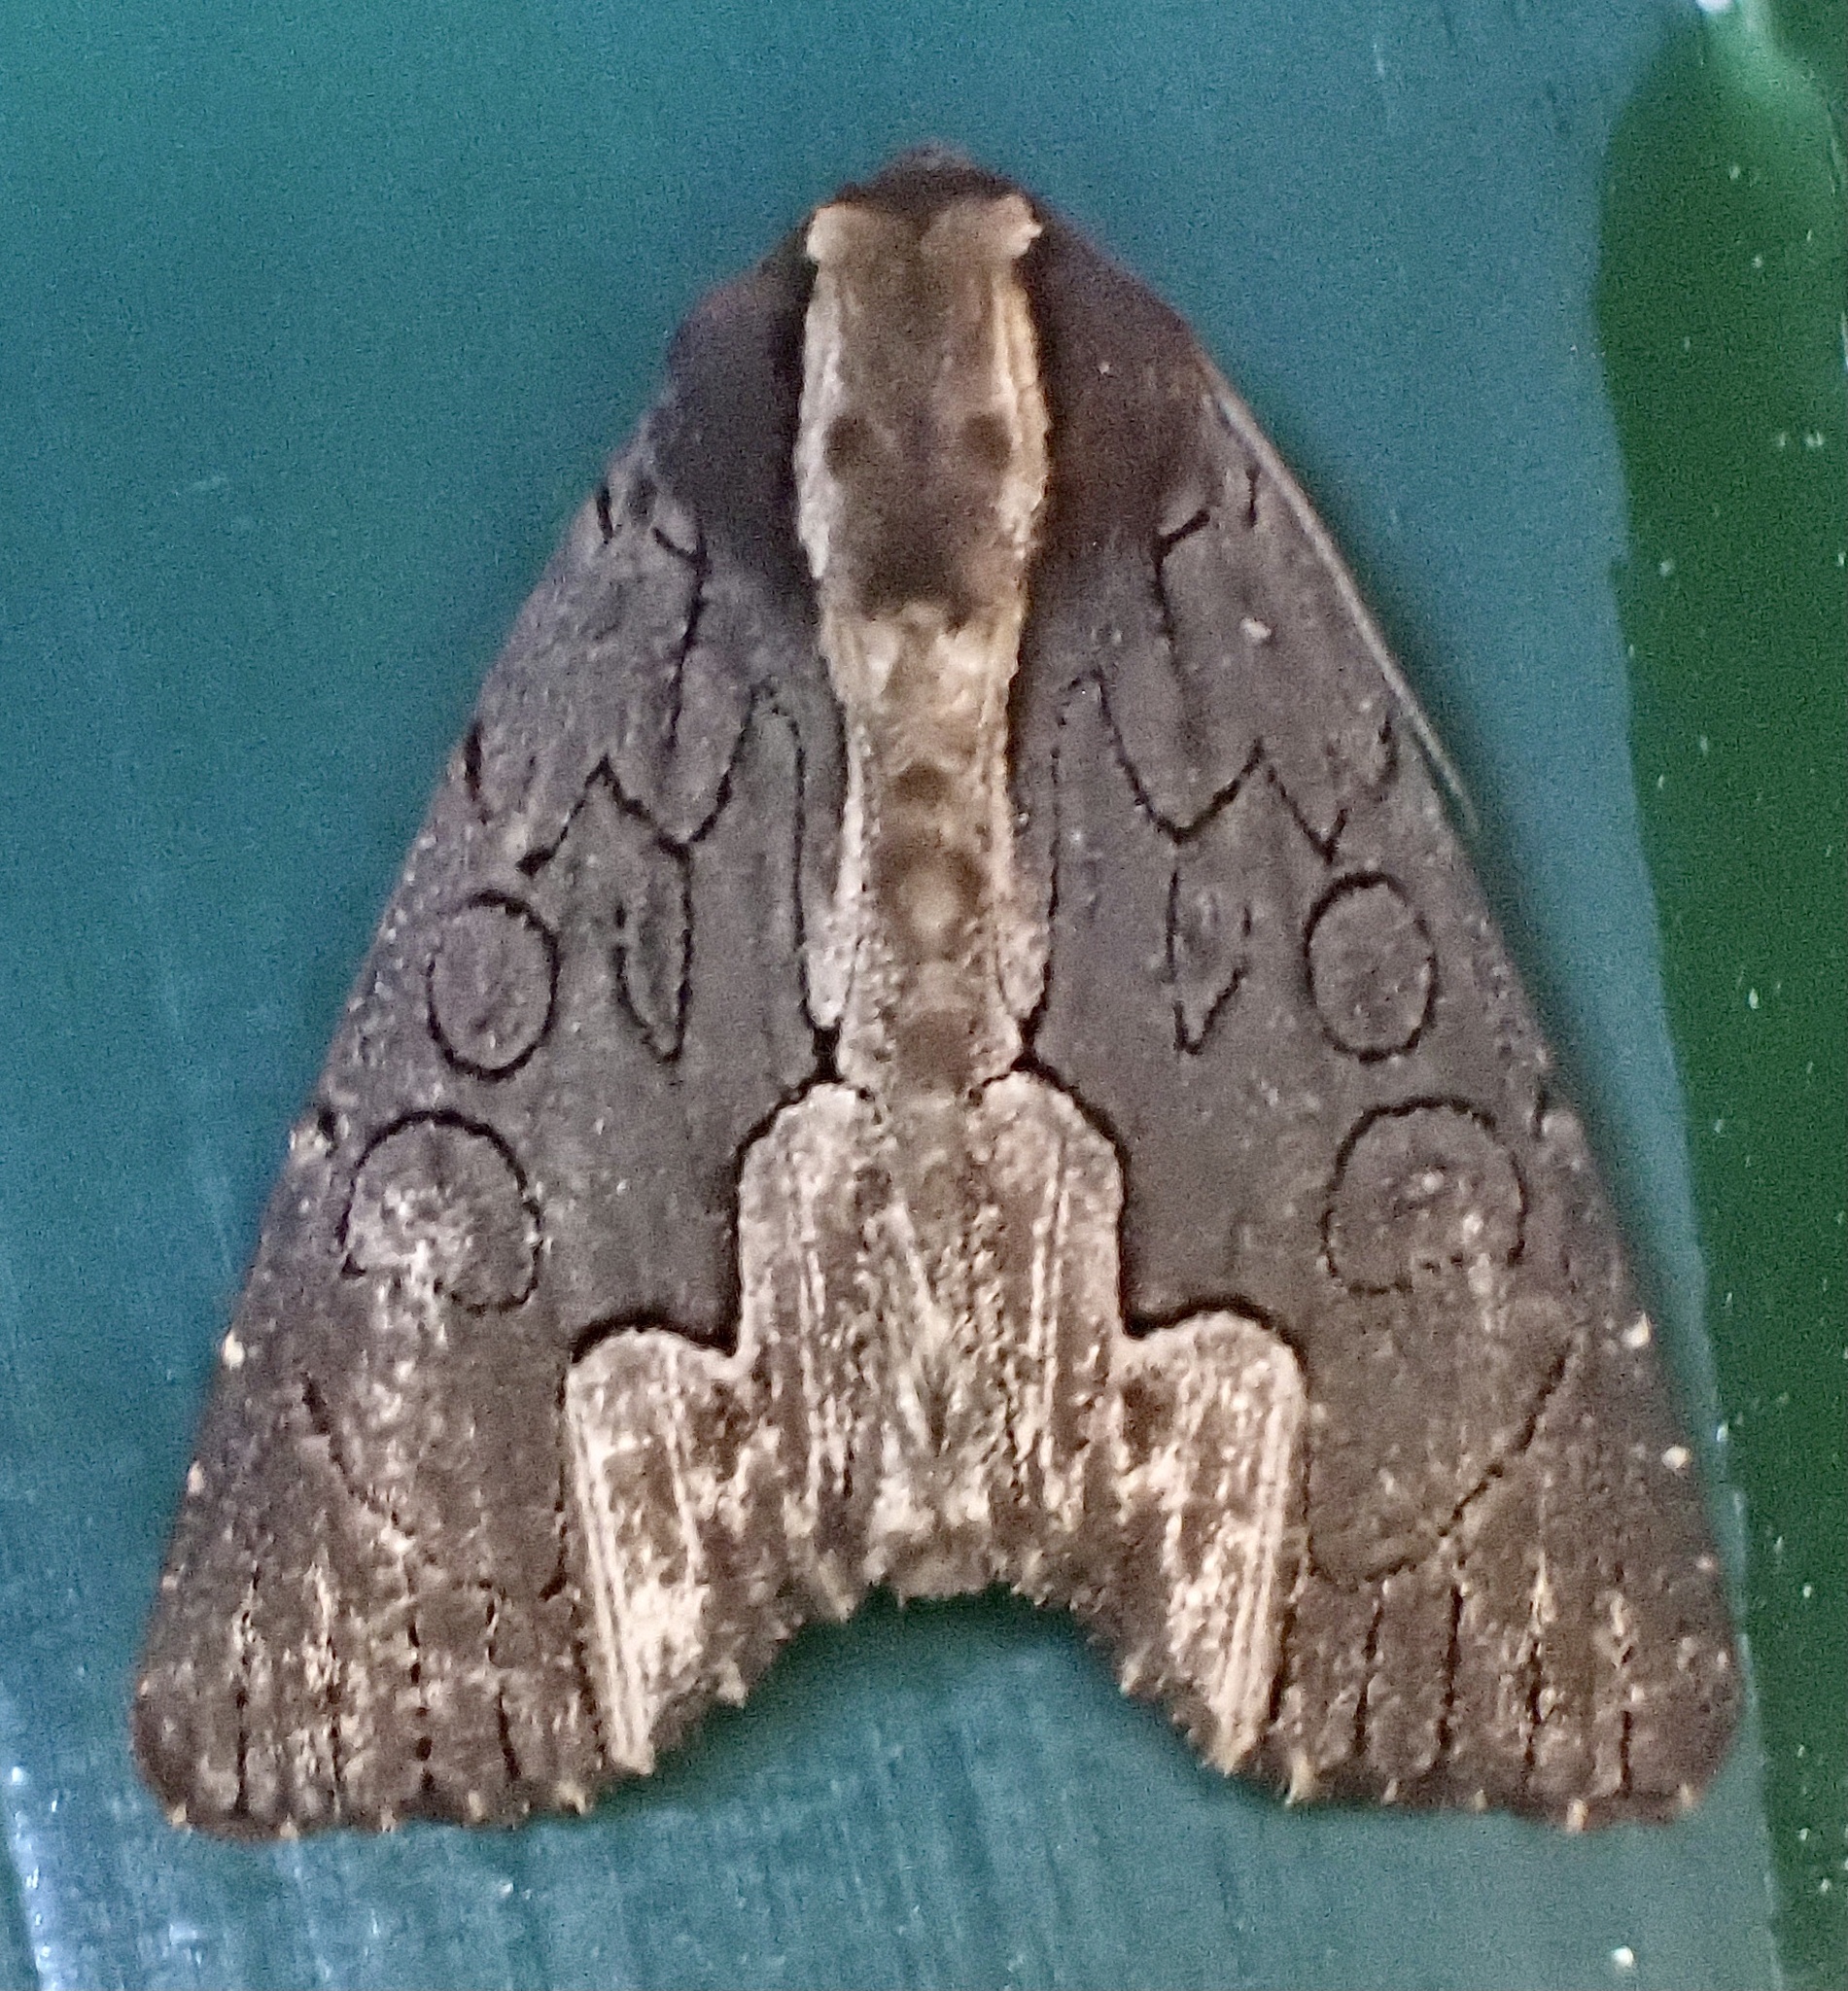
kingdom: Animalia
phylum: Arthropoda
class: Insecta
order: Lepidoptera
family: Noctuidae
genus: Dypterygia
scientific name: Dypterygia rozmani
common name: American bird's-wing
